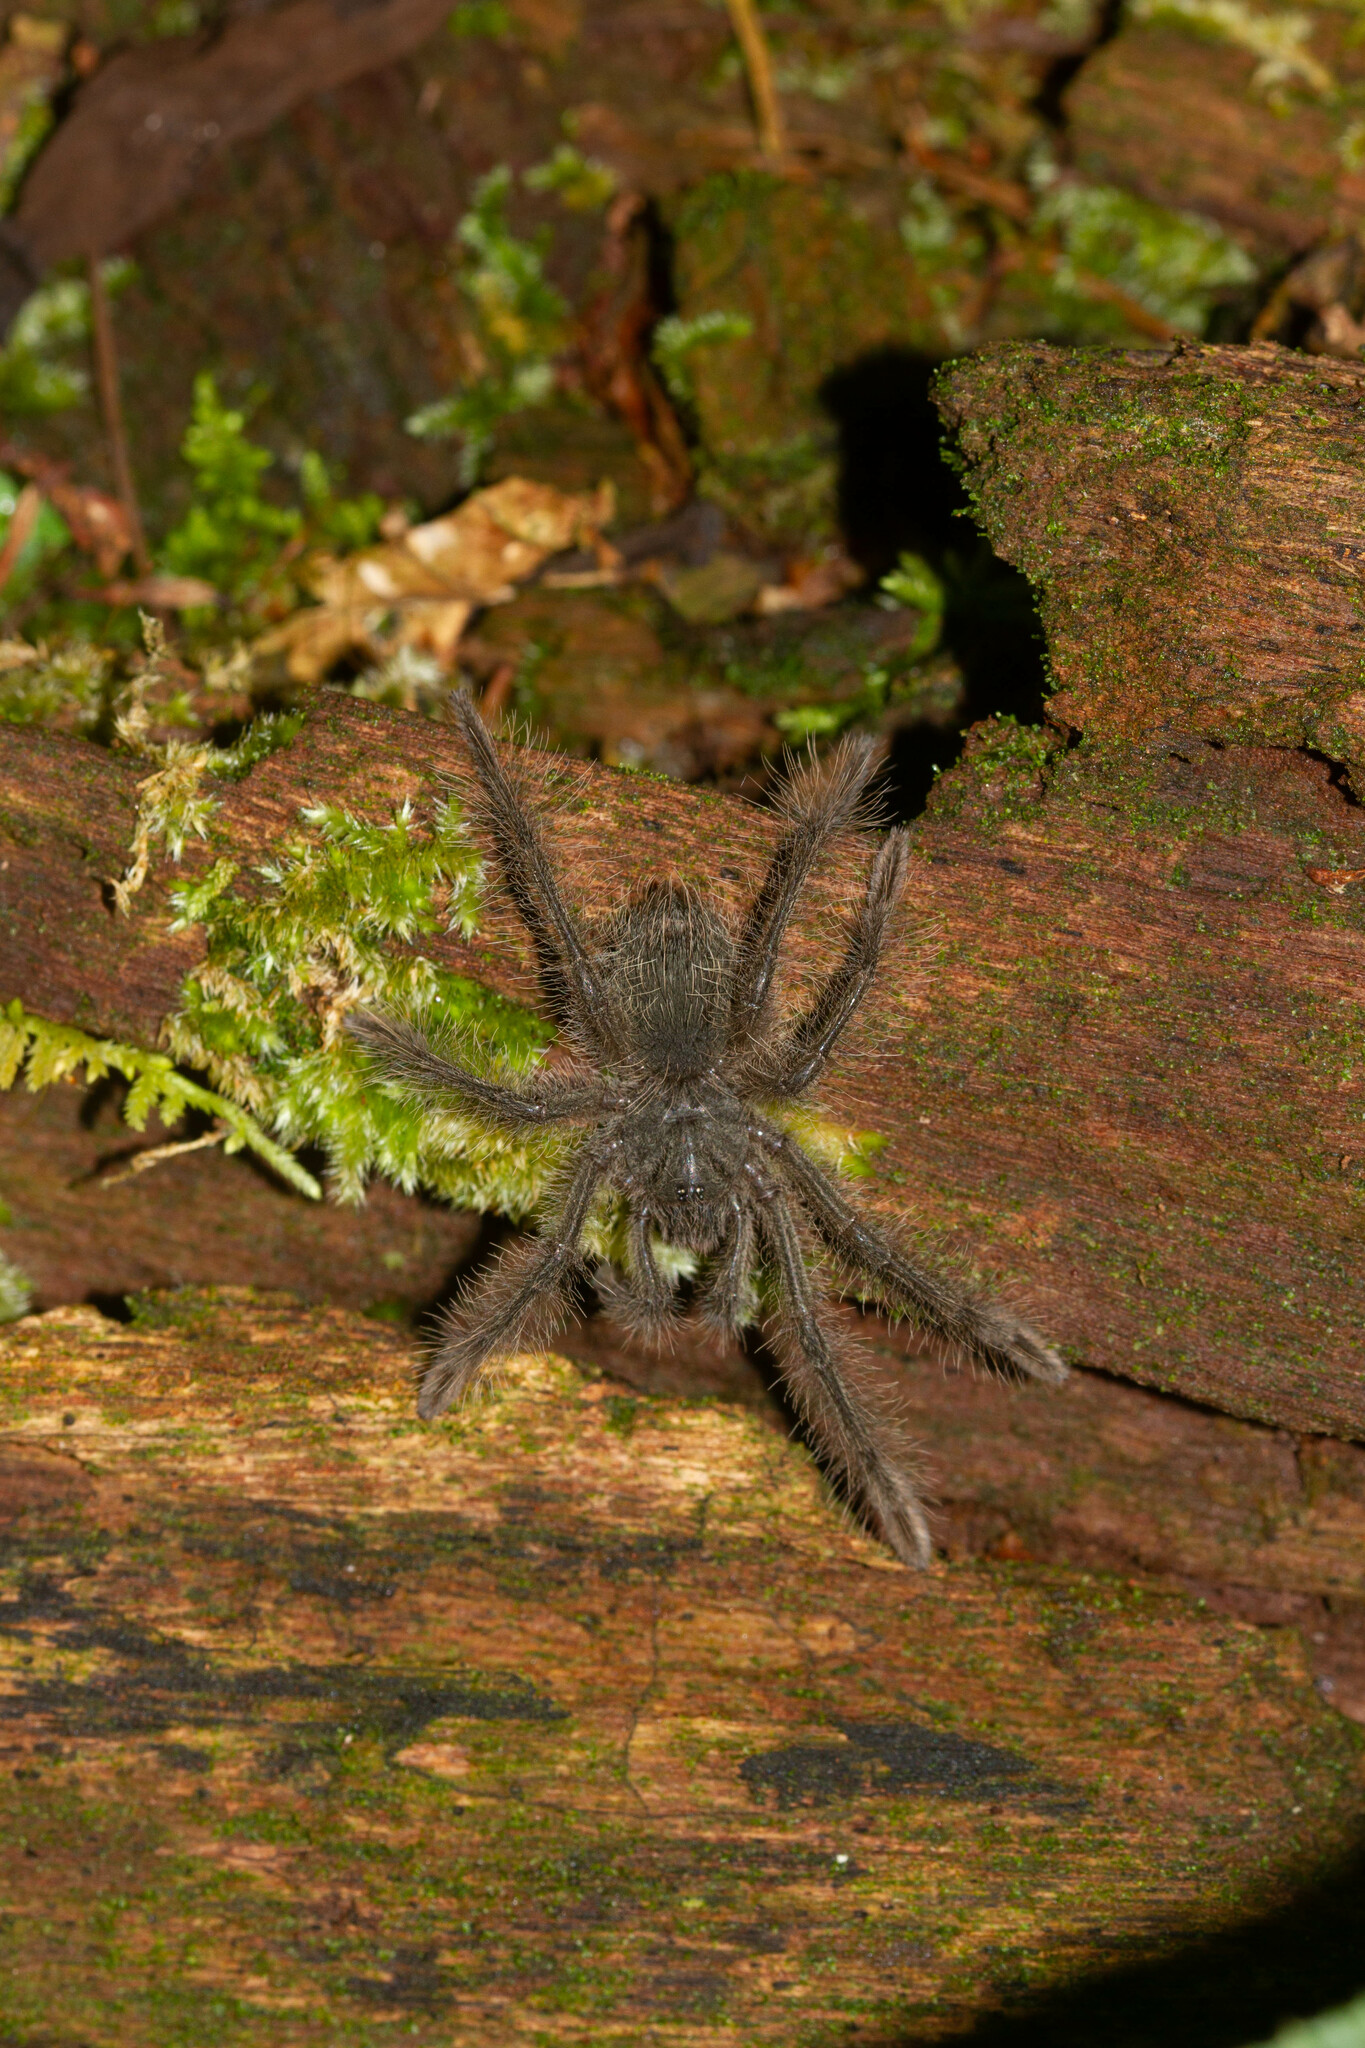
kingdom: Animalia
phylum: Arthropoda
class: Arachnida
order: Araneae
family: Theraphosidae
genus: Theraphosa
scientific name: Theraphosa blondi
